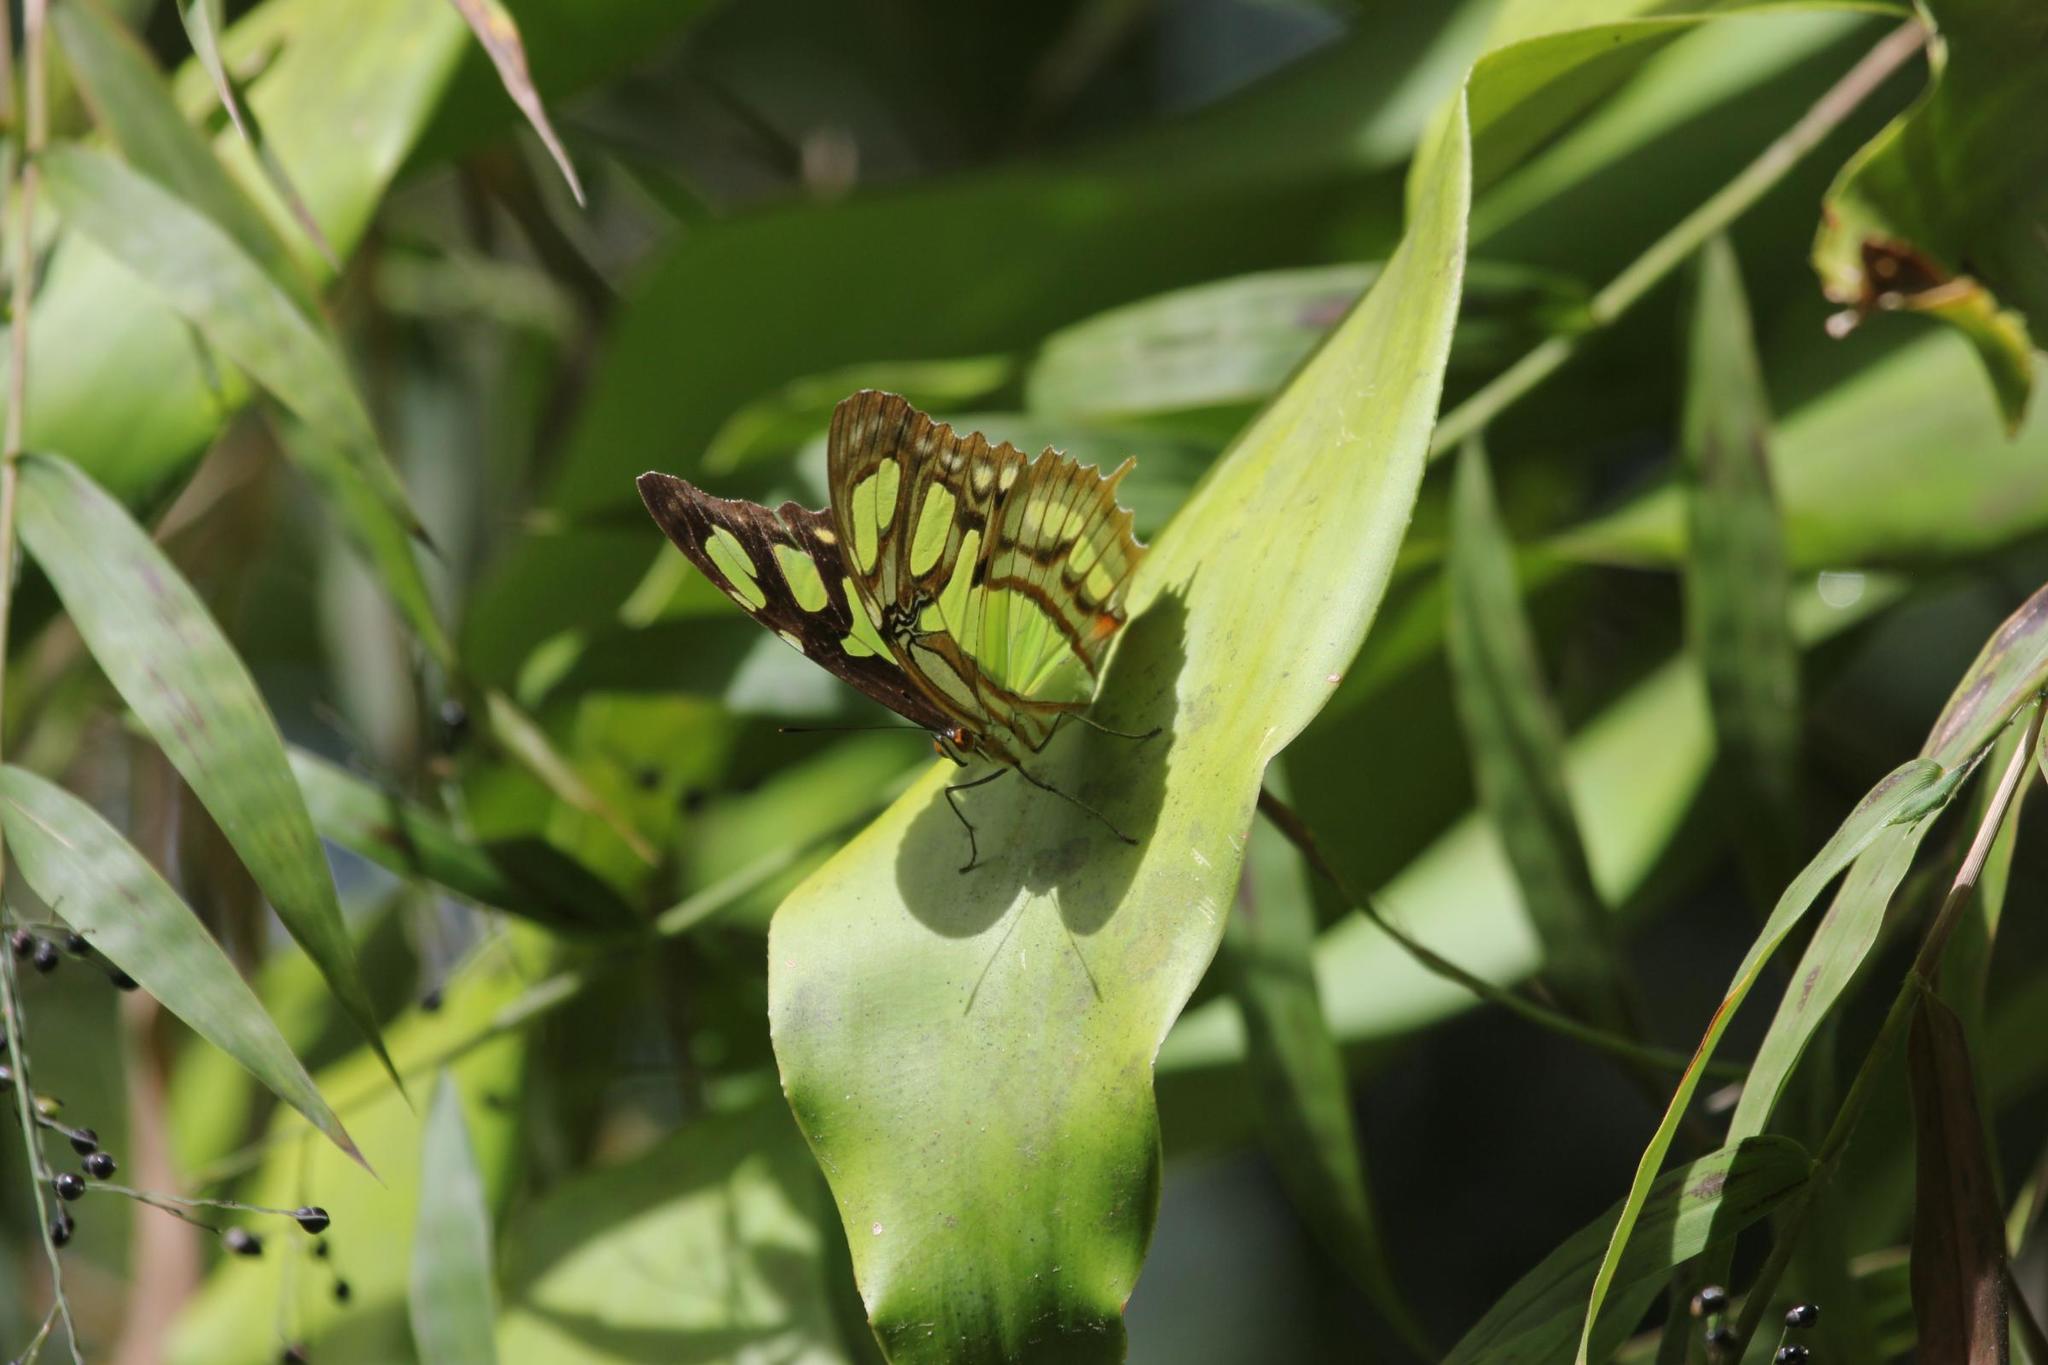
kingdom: Animalia
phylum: Arthropoda
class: Insecta
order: Lepidoptera
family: Nymphalidae
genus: Siproeta
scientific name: Siproeta stelenes
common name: Malachite
